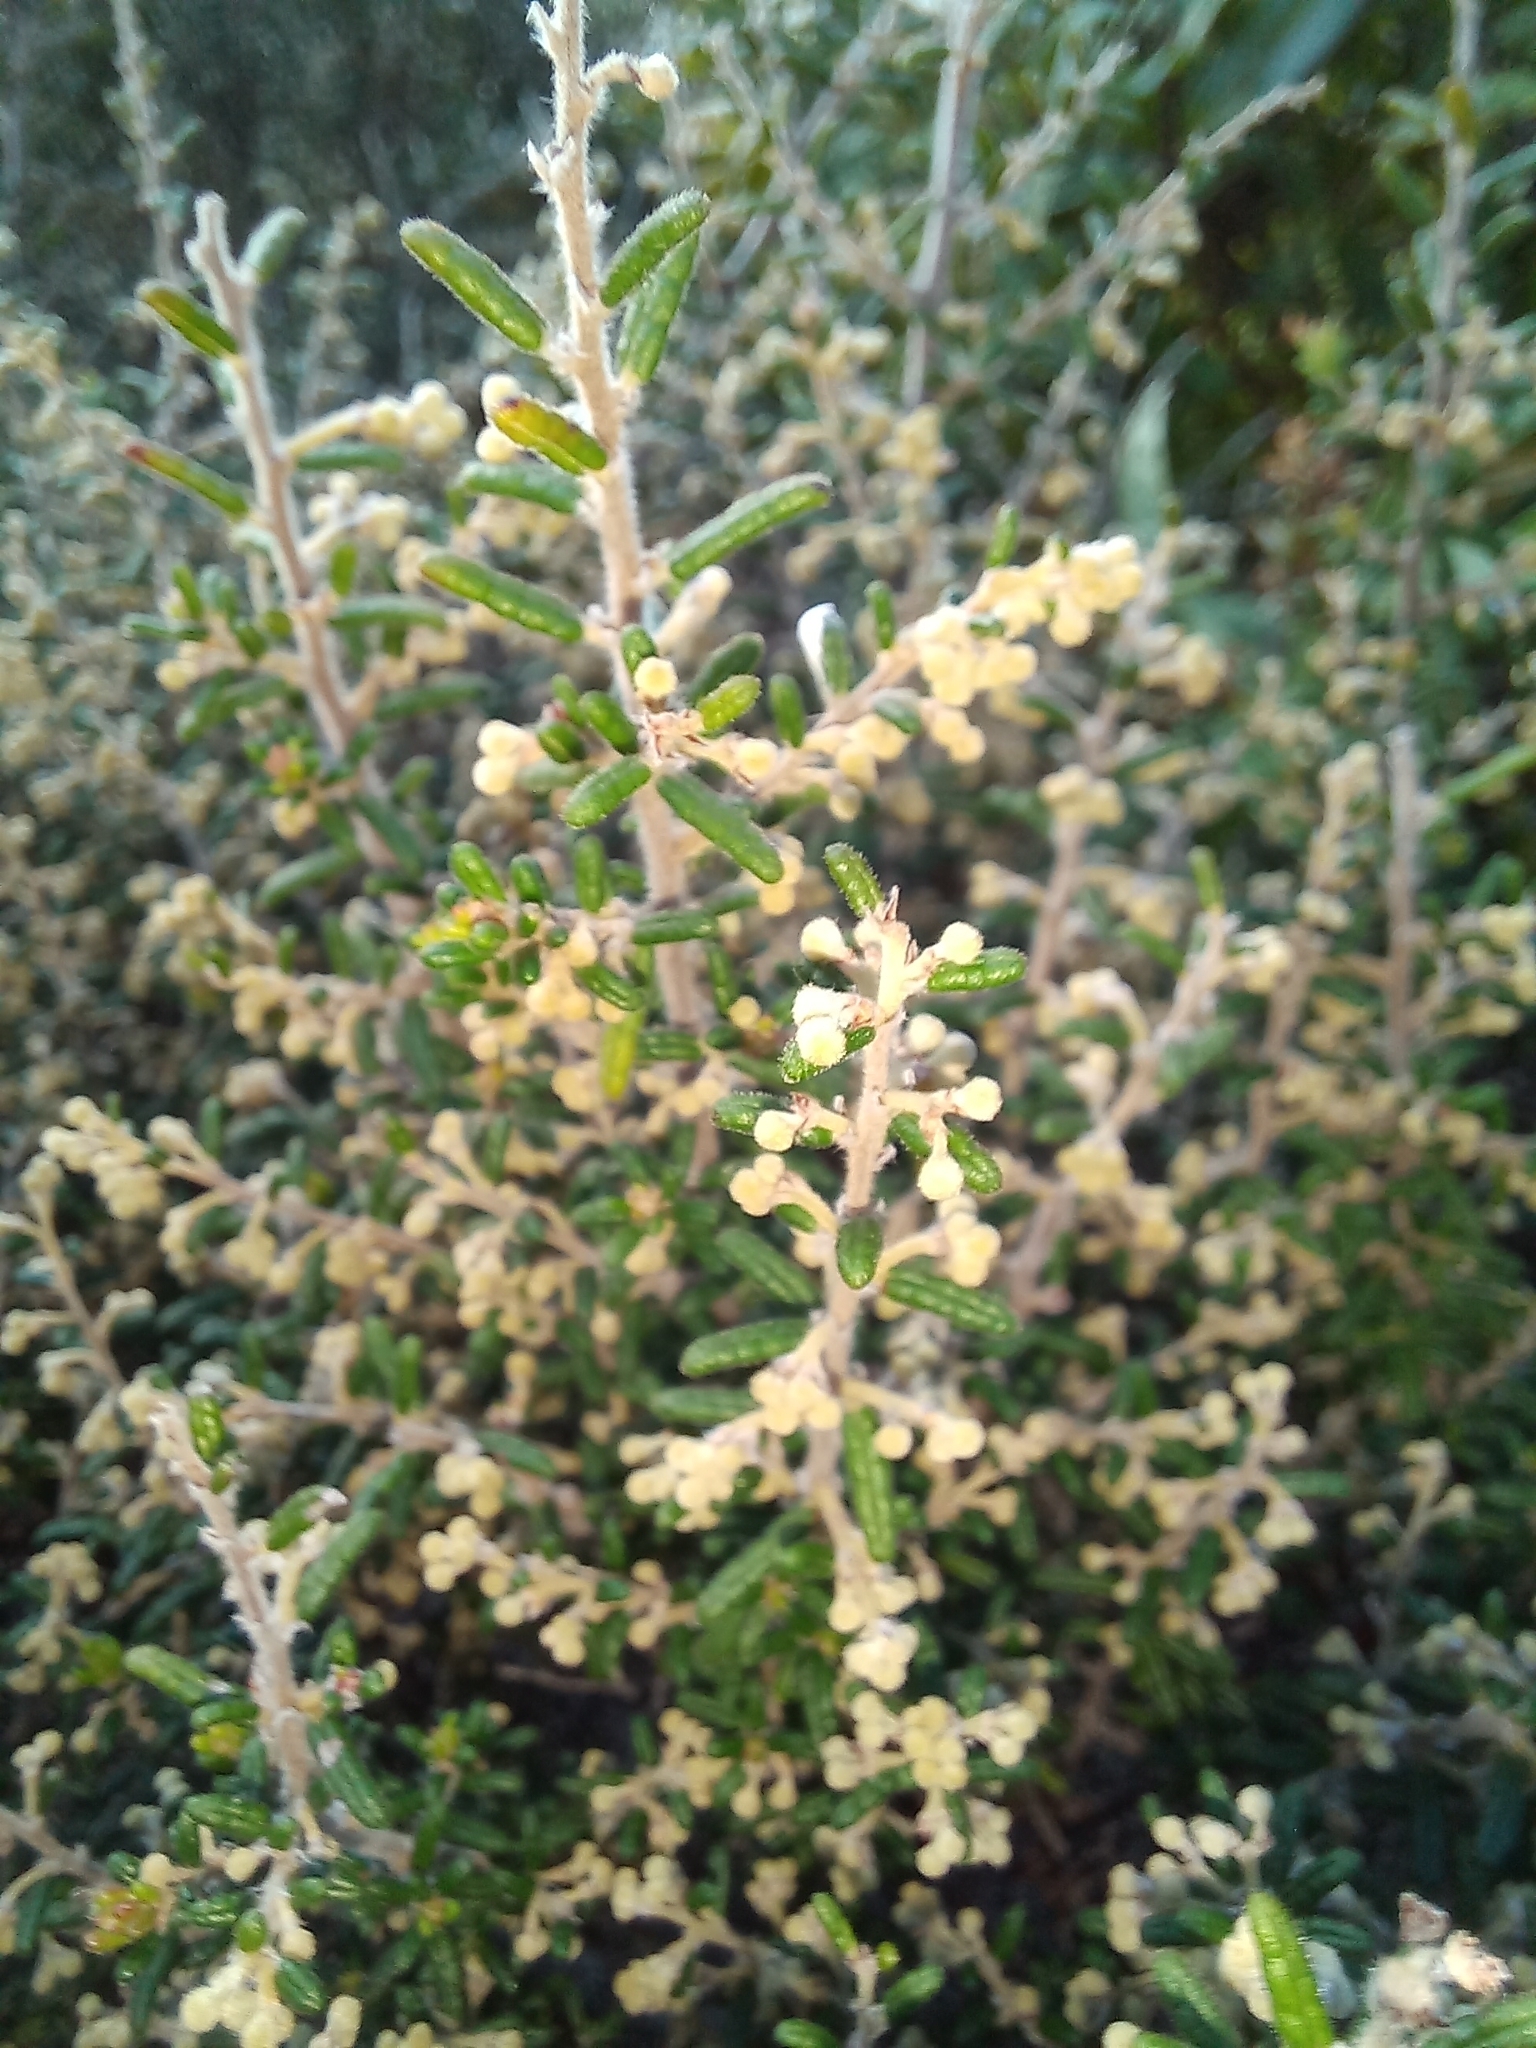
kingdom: Plantae
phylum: Tracheophyta
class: Magnoliopsida
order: Rosales
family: Rhamnaceae
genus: Pomaderris
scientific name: Pomaderris amoena
